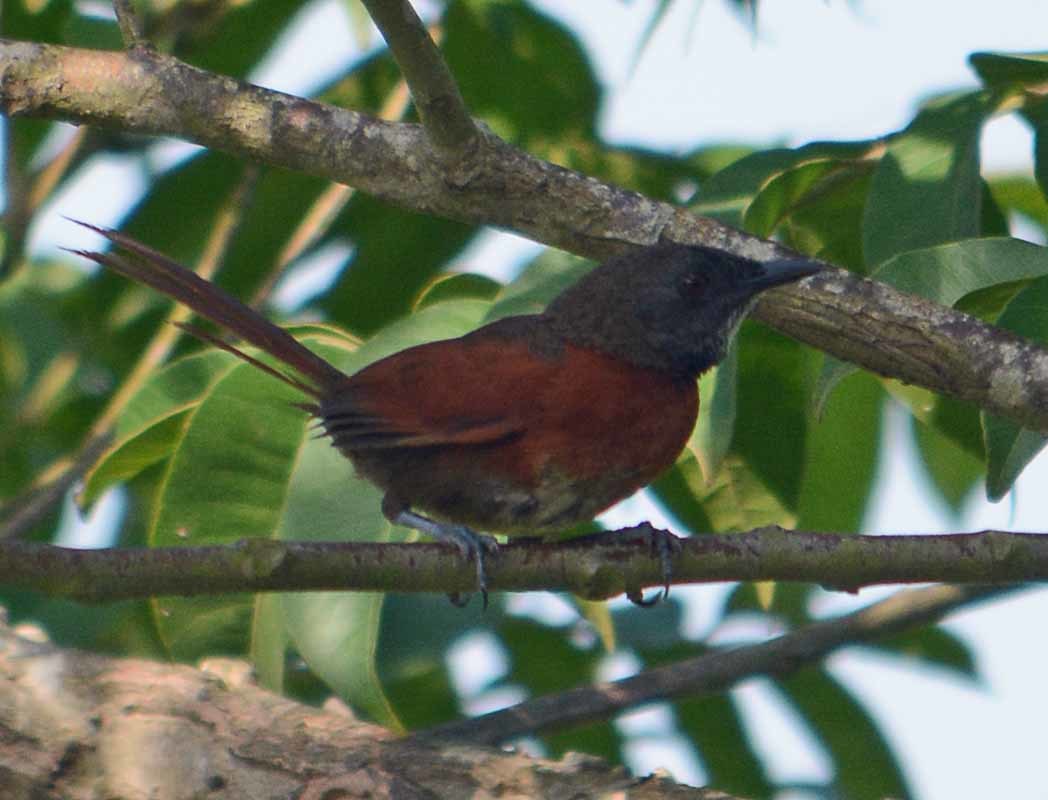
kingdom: Animalia
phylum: Chordata
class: Aves
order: Passeriformes
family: Furnariidae
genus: Synallaxis
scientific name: Synallaxis erythrothorax
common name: Rufous-breasted spinetail
